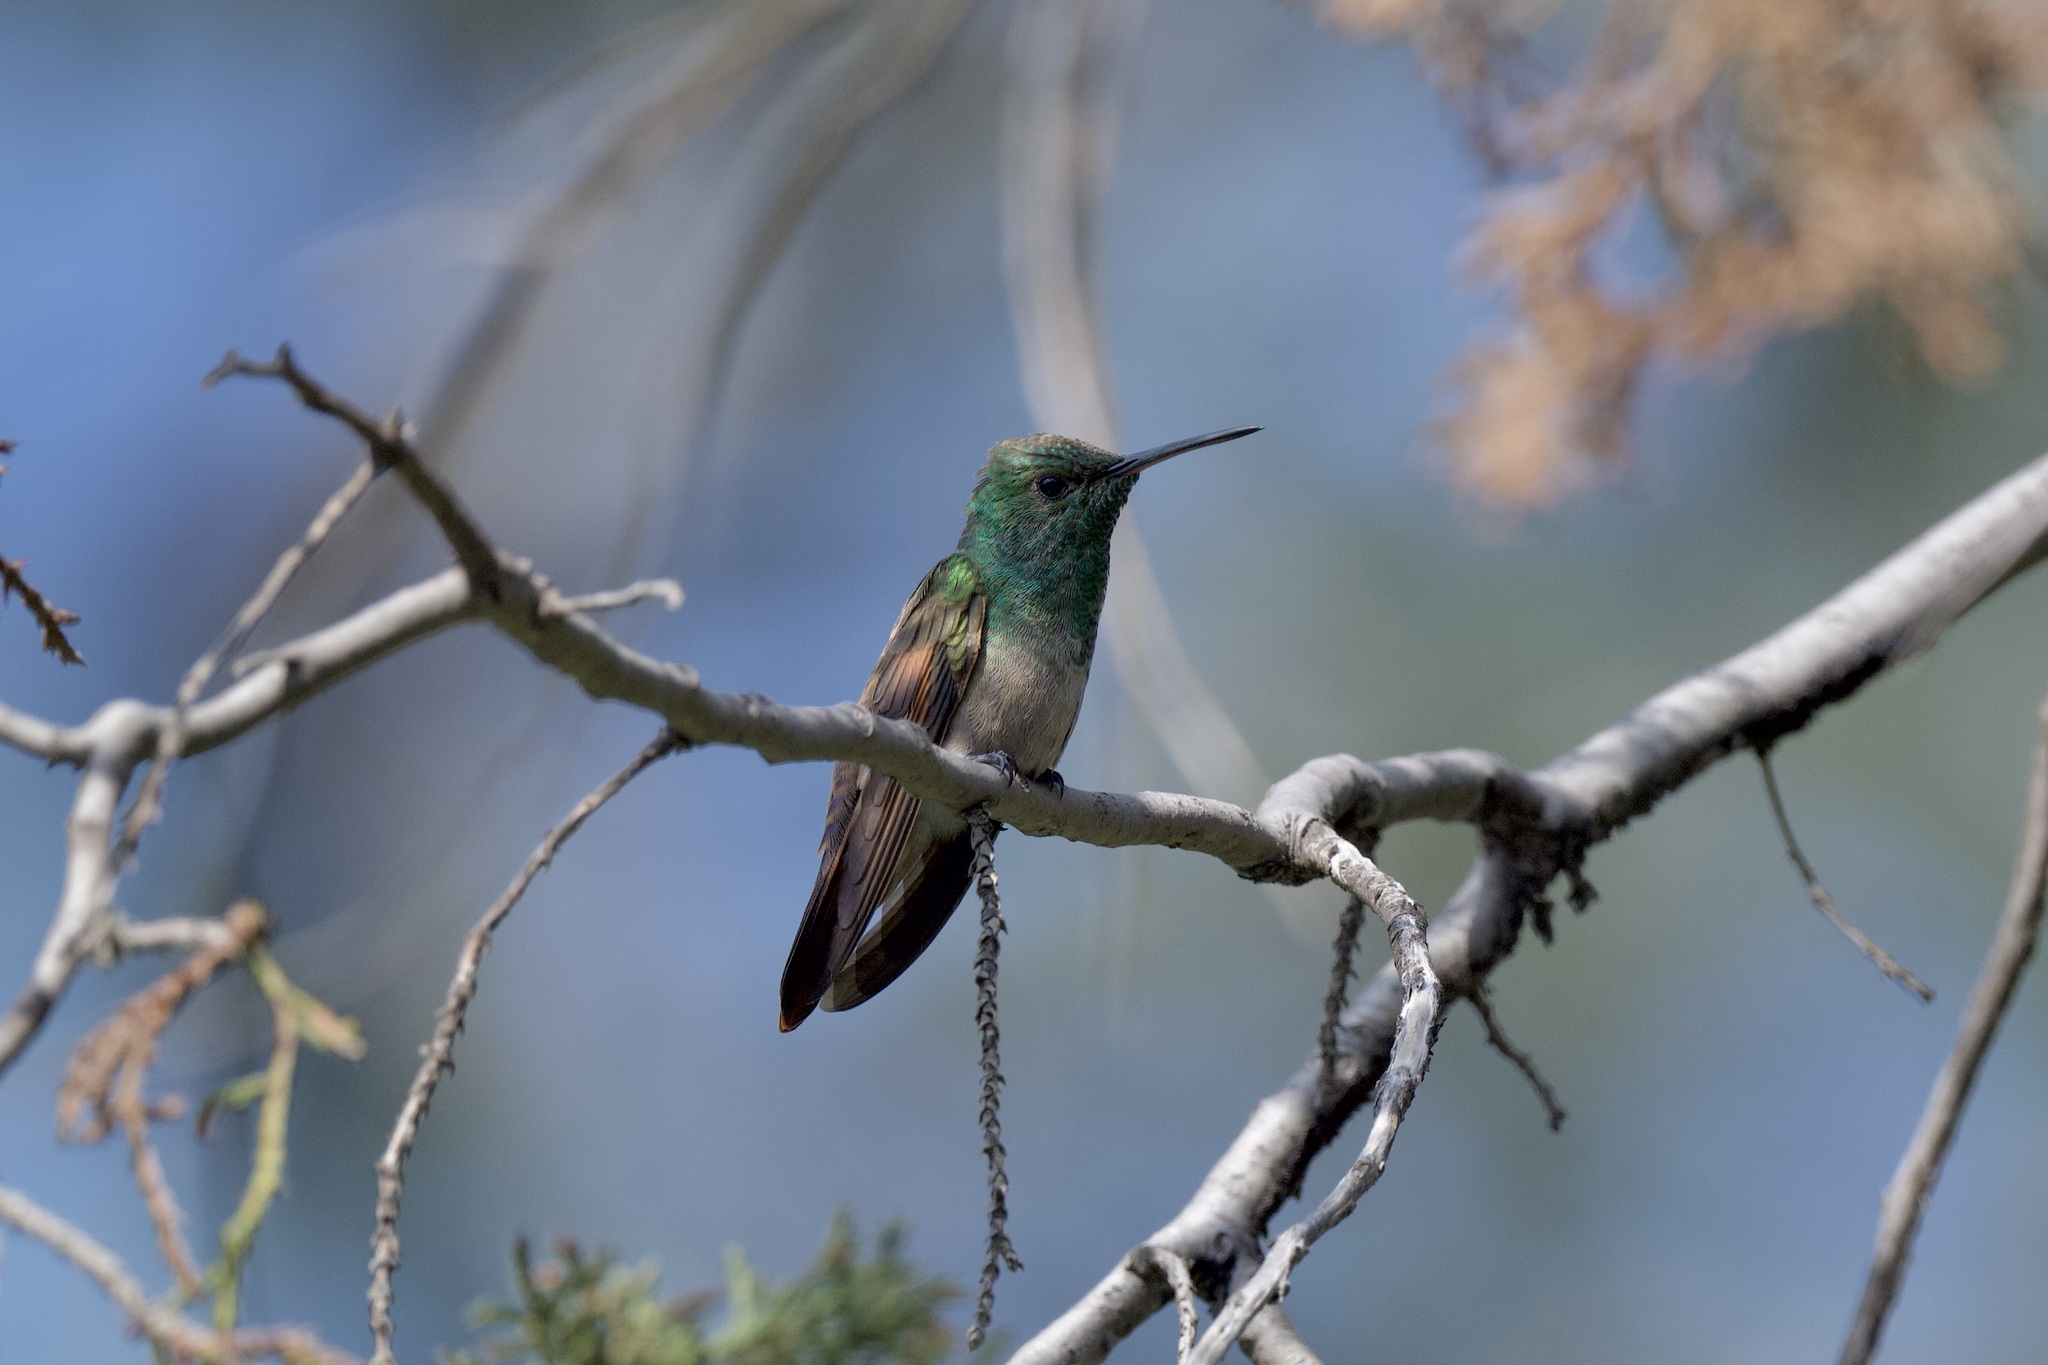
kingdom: Animalia
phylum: Chordata
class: Aves
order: Apodiformes
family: Trochilidae
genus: Saucerottia
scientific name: Saucerottia beryllina
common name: Berylline hummingbird
